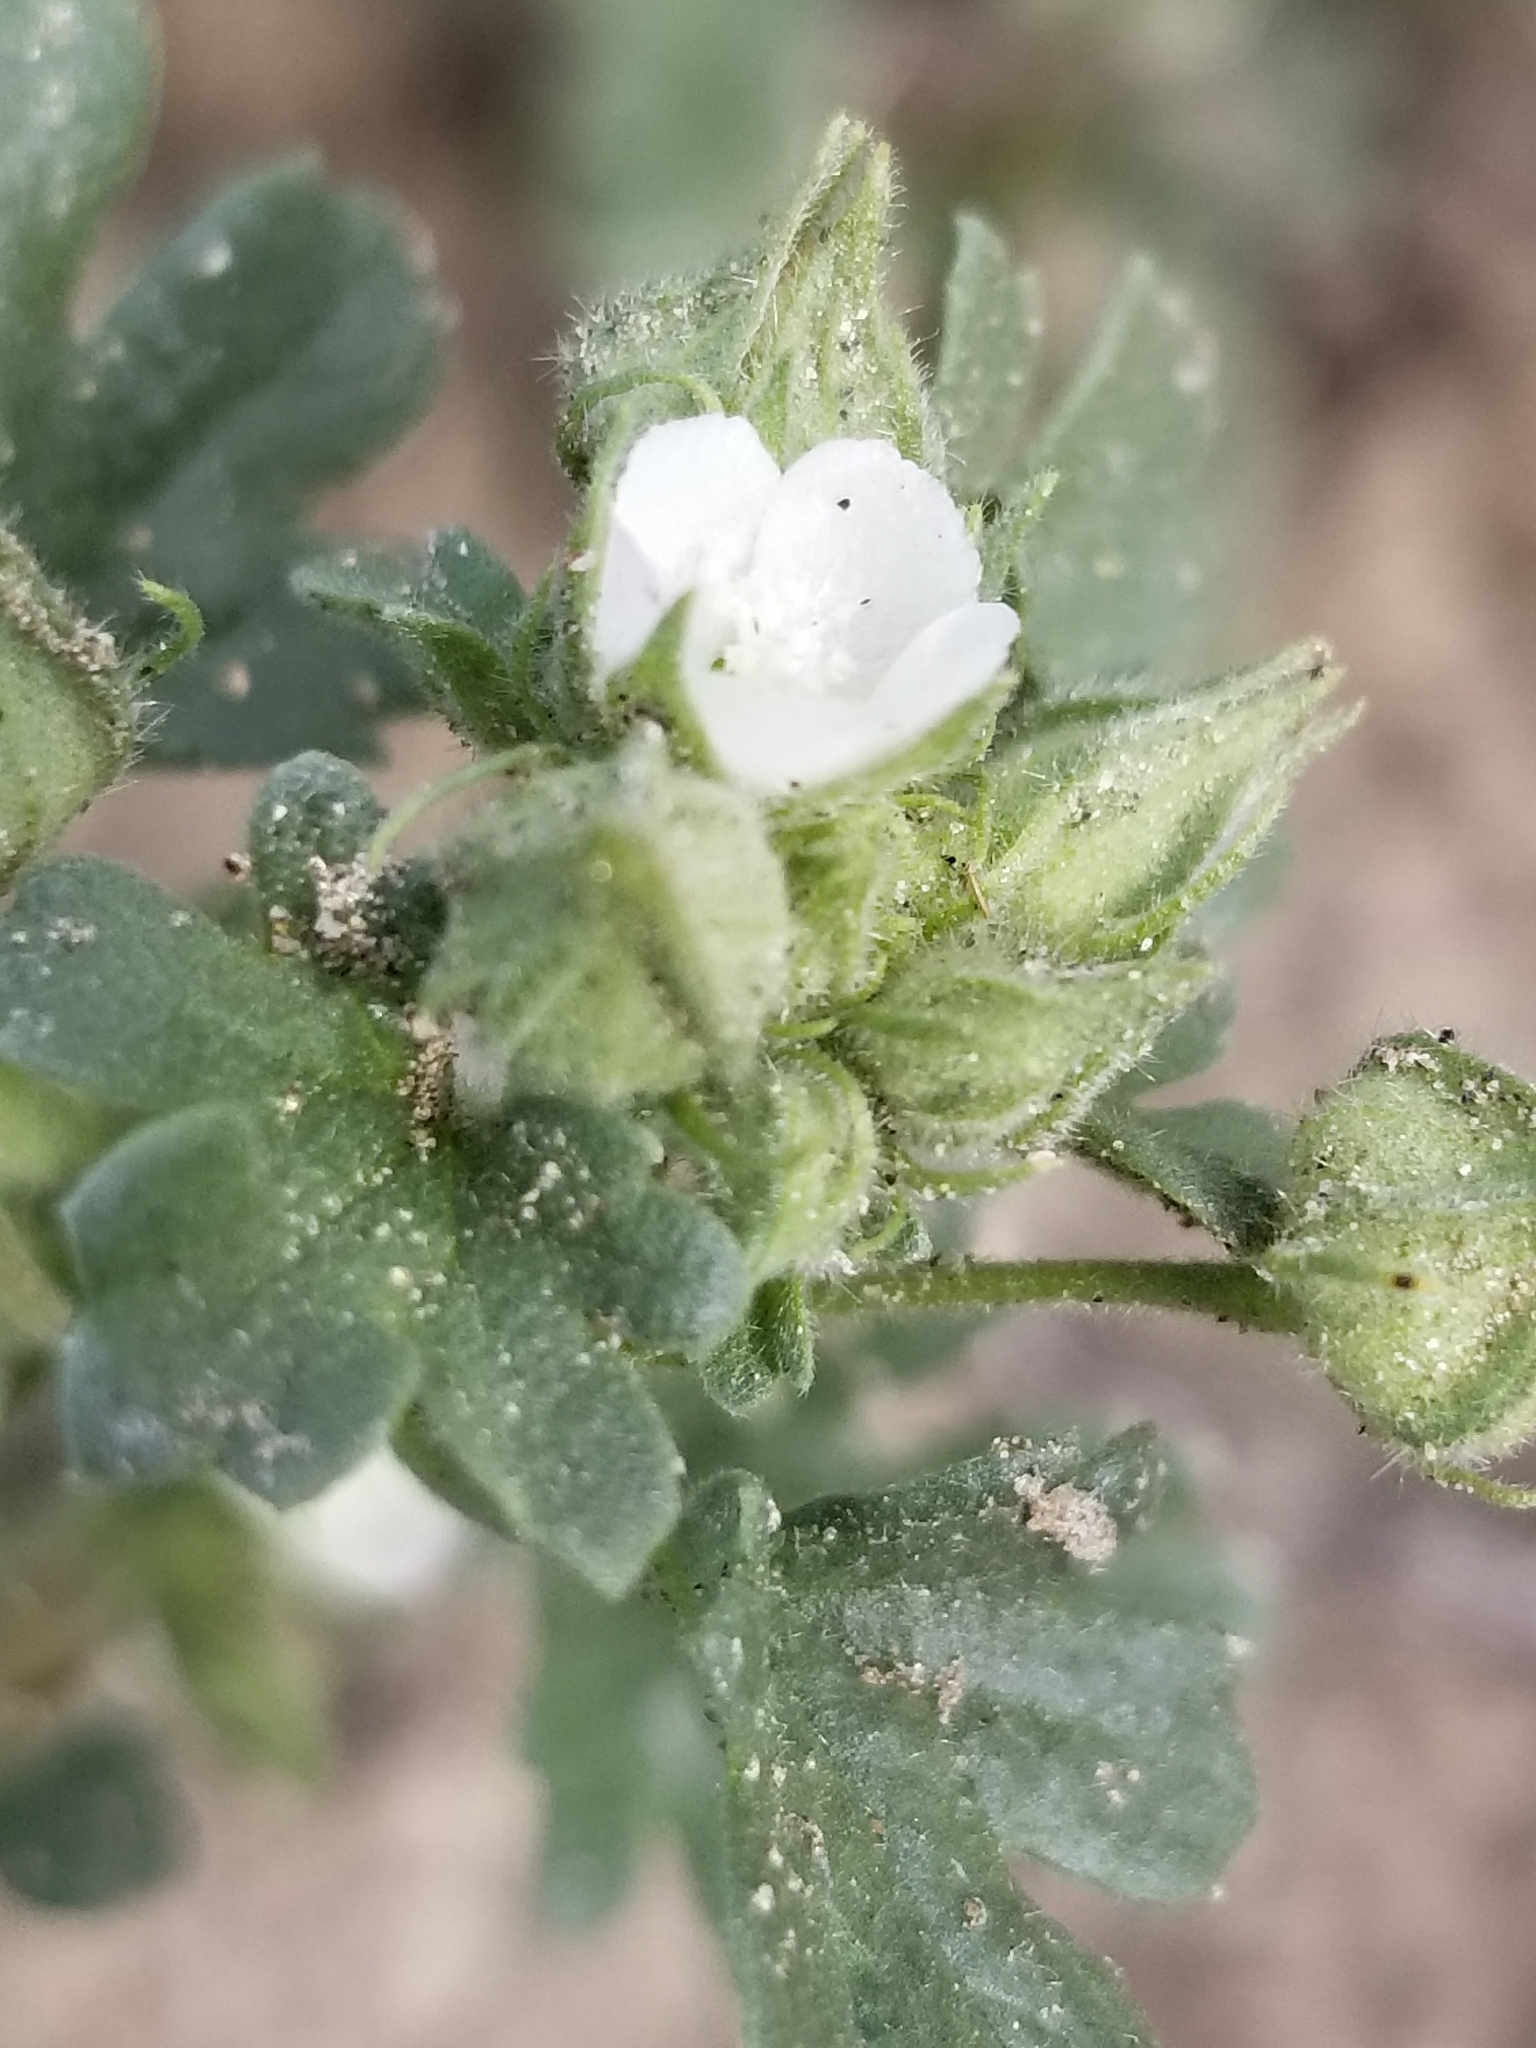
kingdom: Plantae
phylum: Tracheophyta
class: Magnoliopsida
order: Malvales
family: Malvaceae
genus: Eremalche
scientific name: Eremalche exilis
